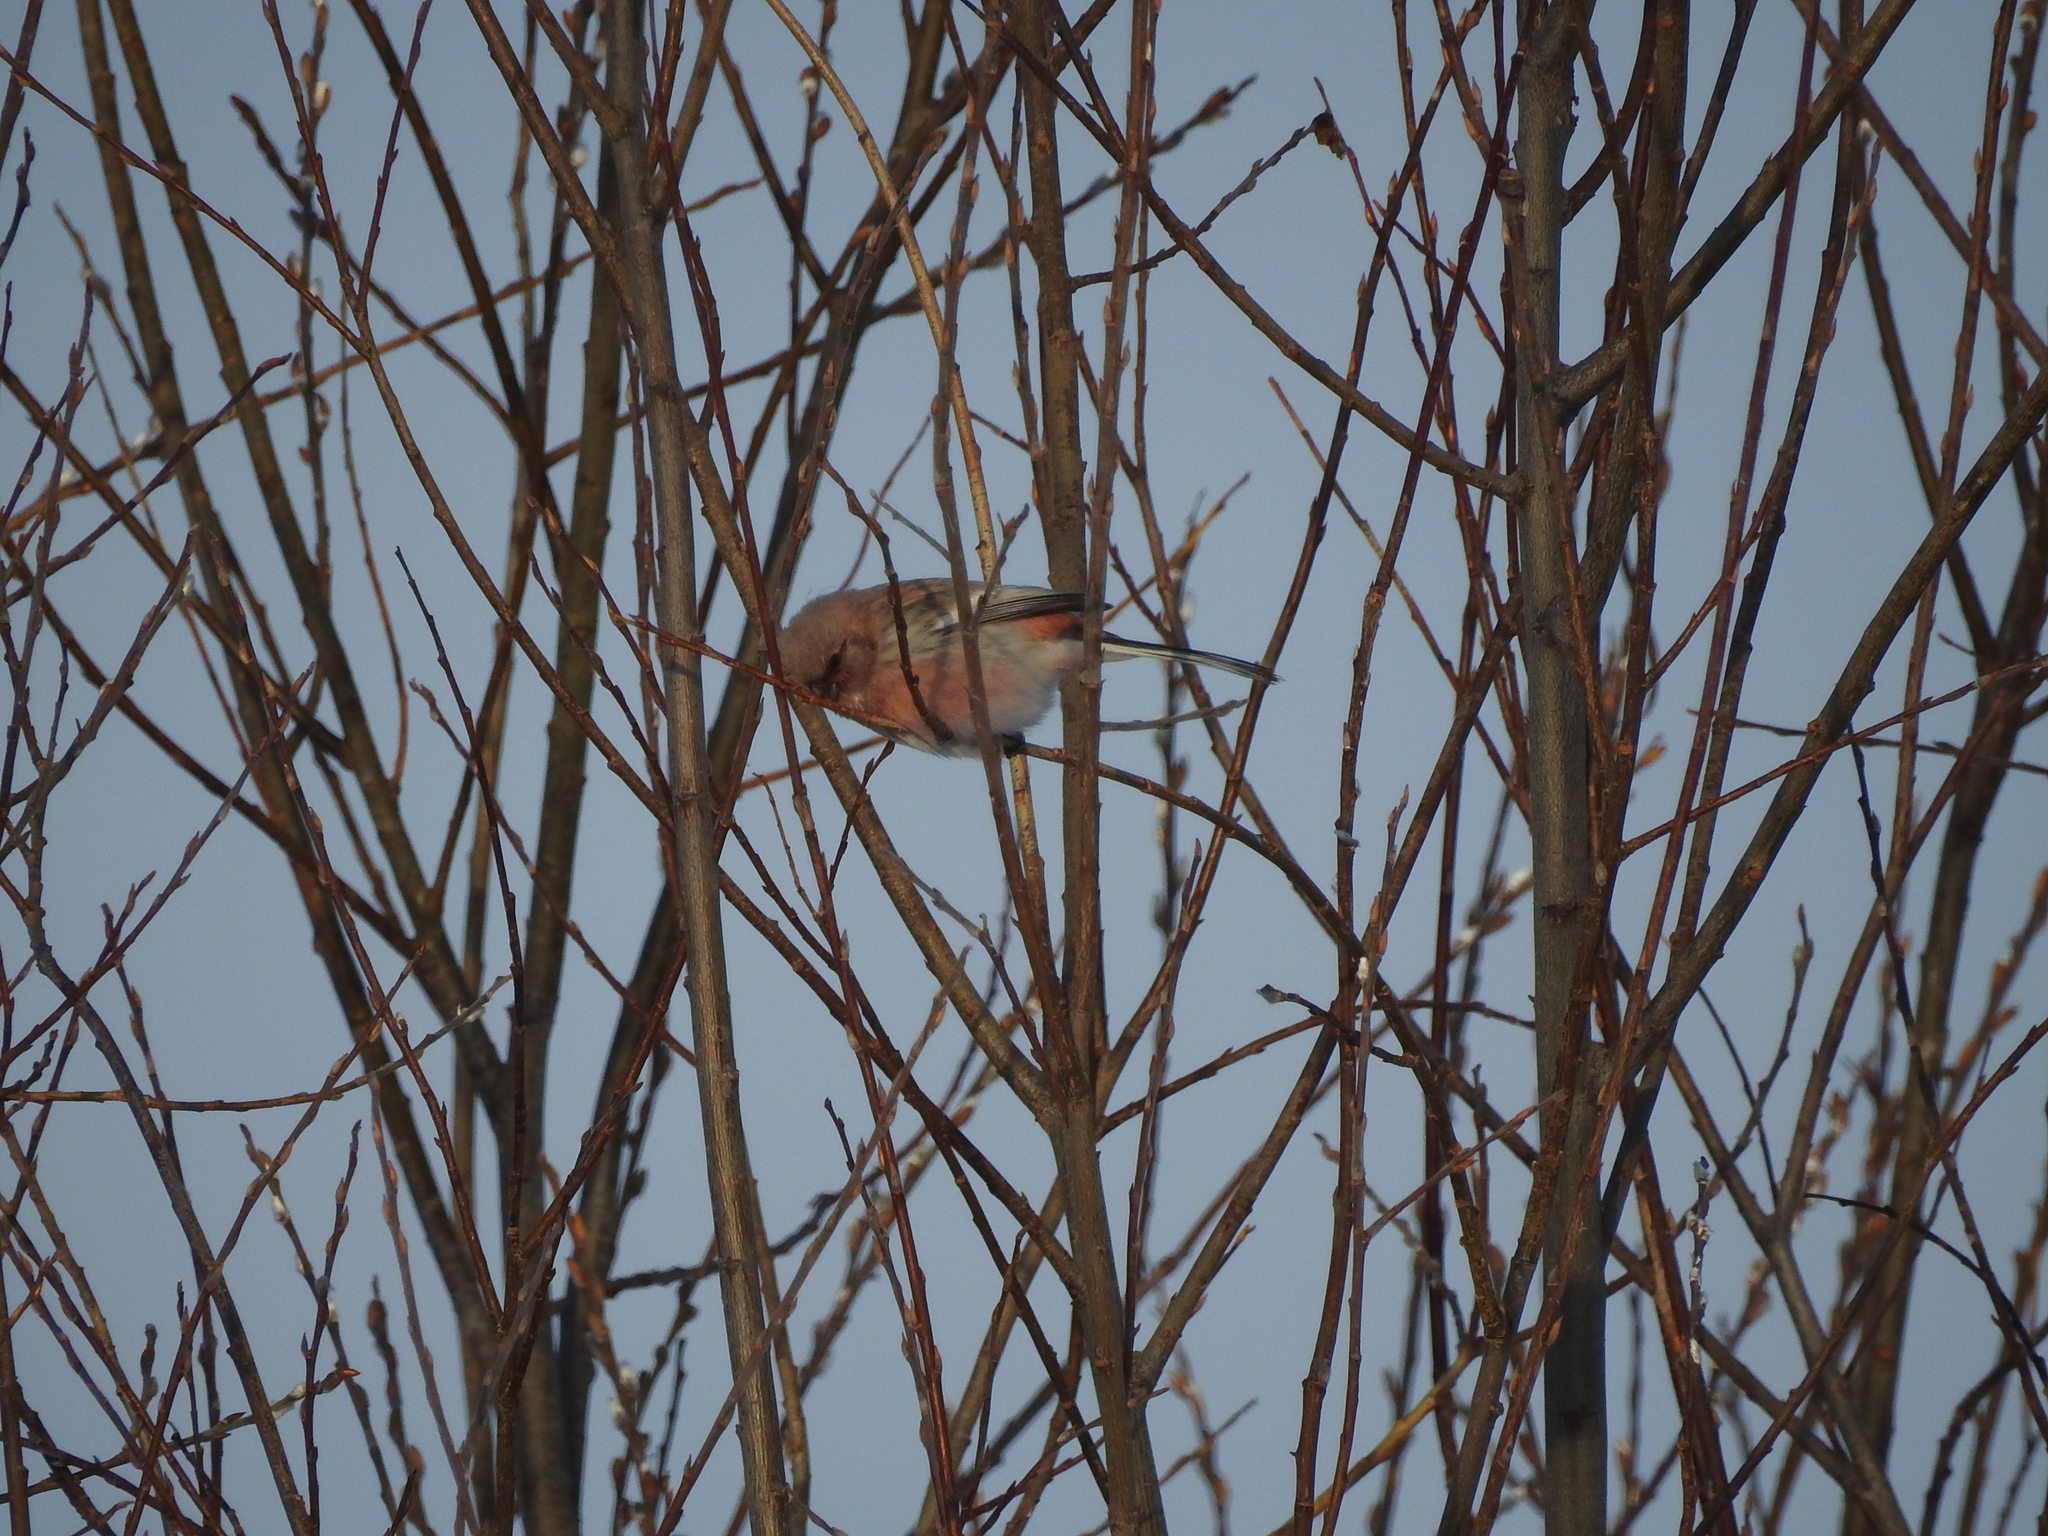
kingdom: Animalia
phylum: Chordata
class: Aves
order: Passeriformes
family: Fringillidae
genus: Carpodacus
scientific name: Carpodacus sibiricus
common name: Long-tailed rosefinch
